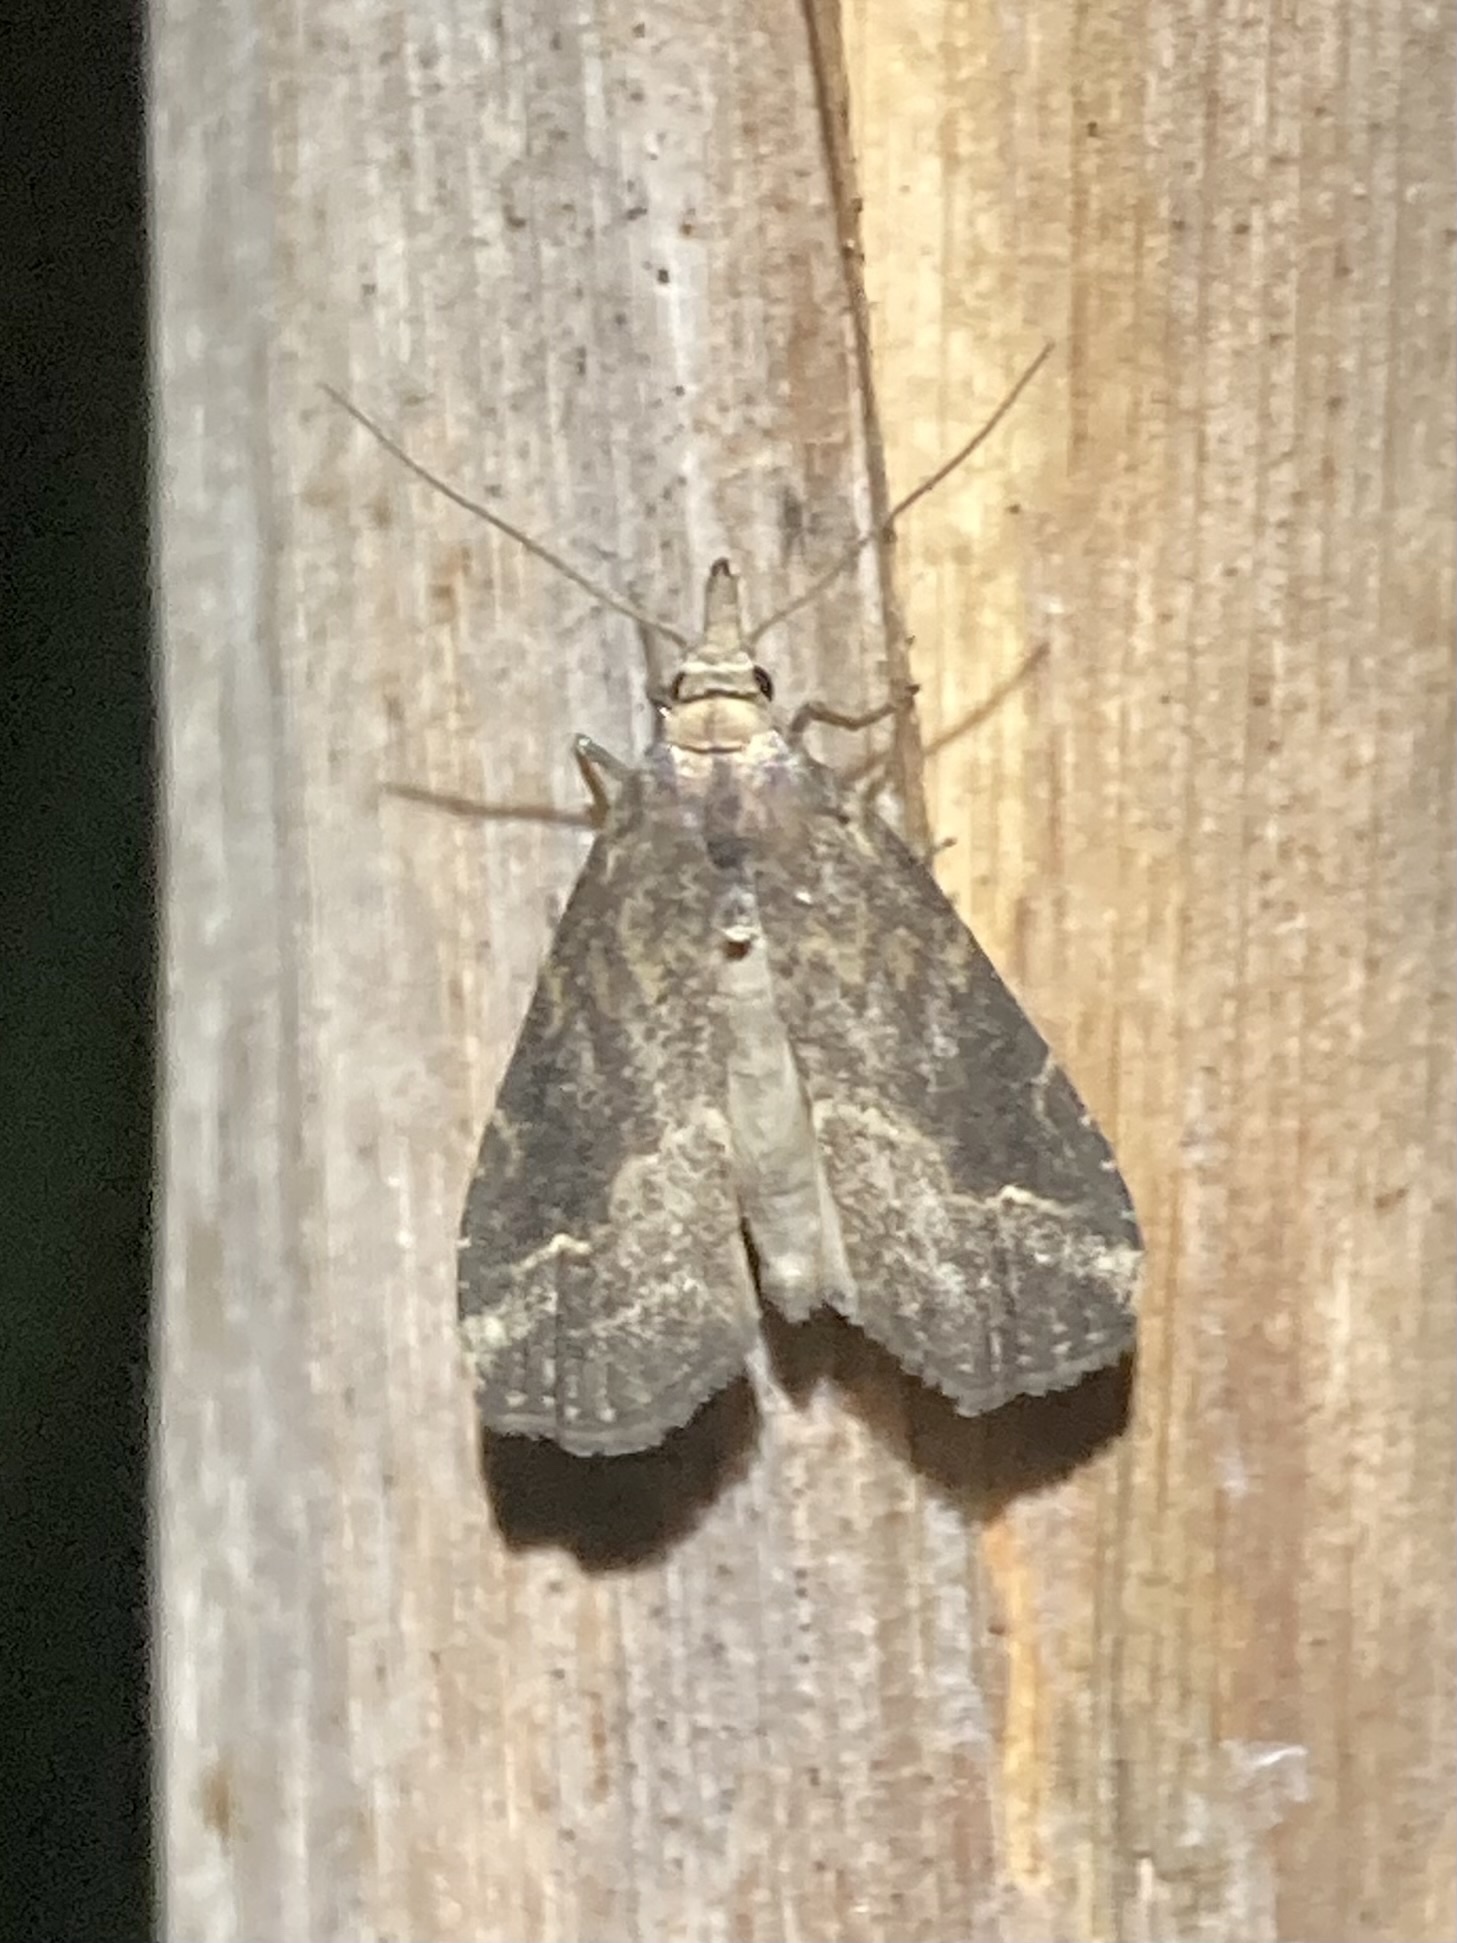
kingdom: Animalia
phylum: Arthropoda
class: Insecta
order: Lepidoptera
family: Erebidae
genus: Schrankia
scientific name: Schrankia costaestrigalis
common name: Pinion-streaked snout
